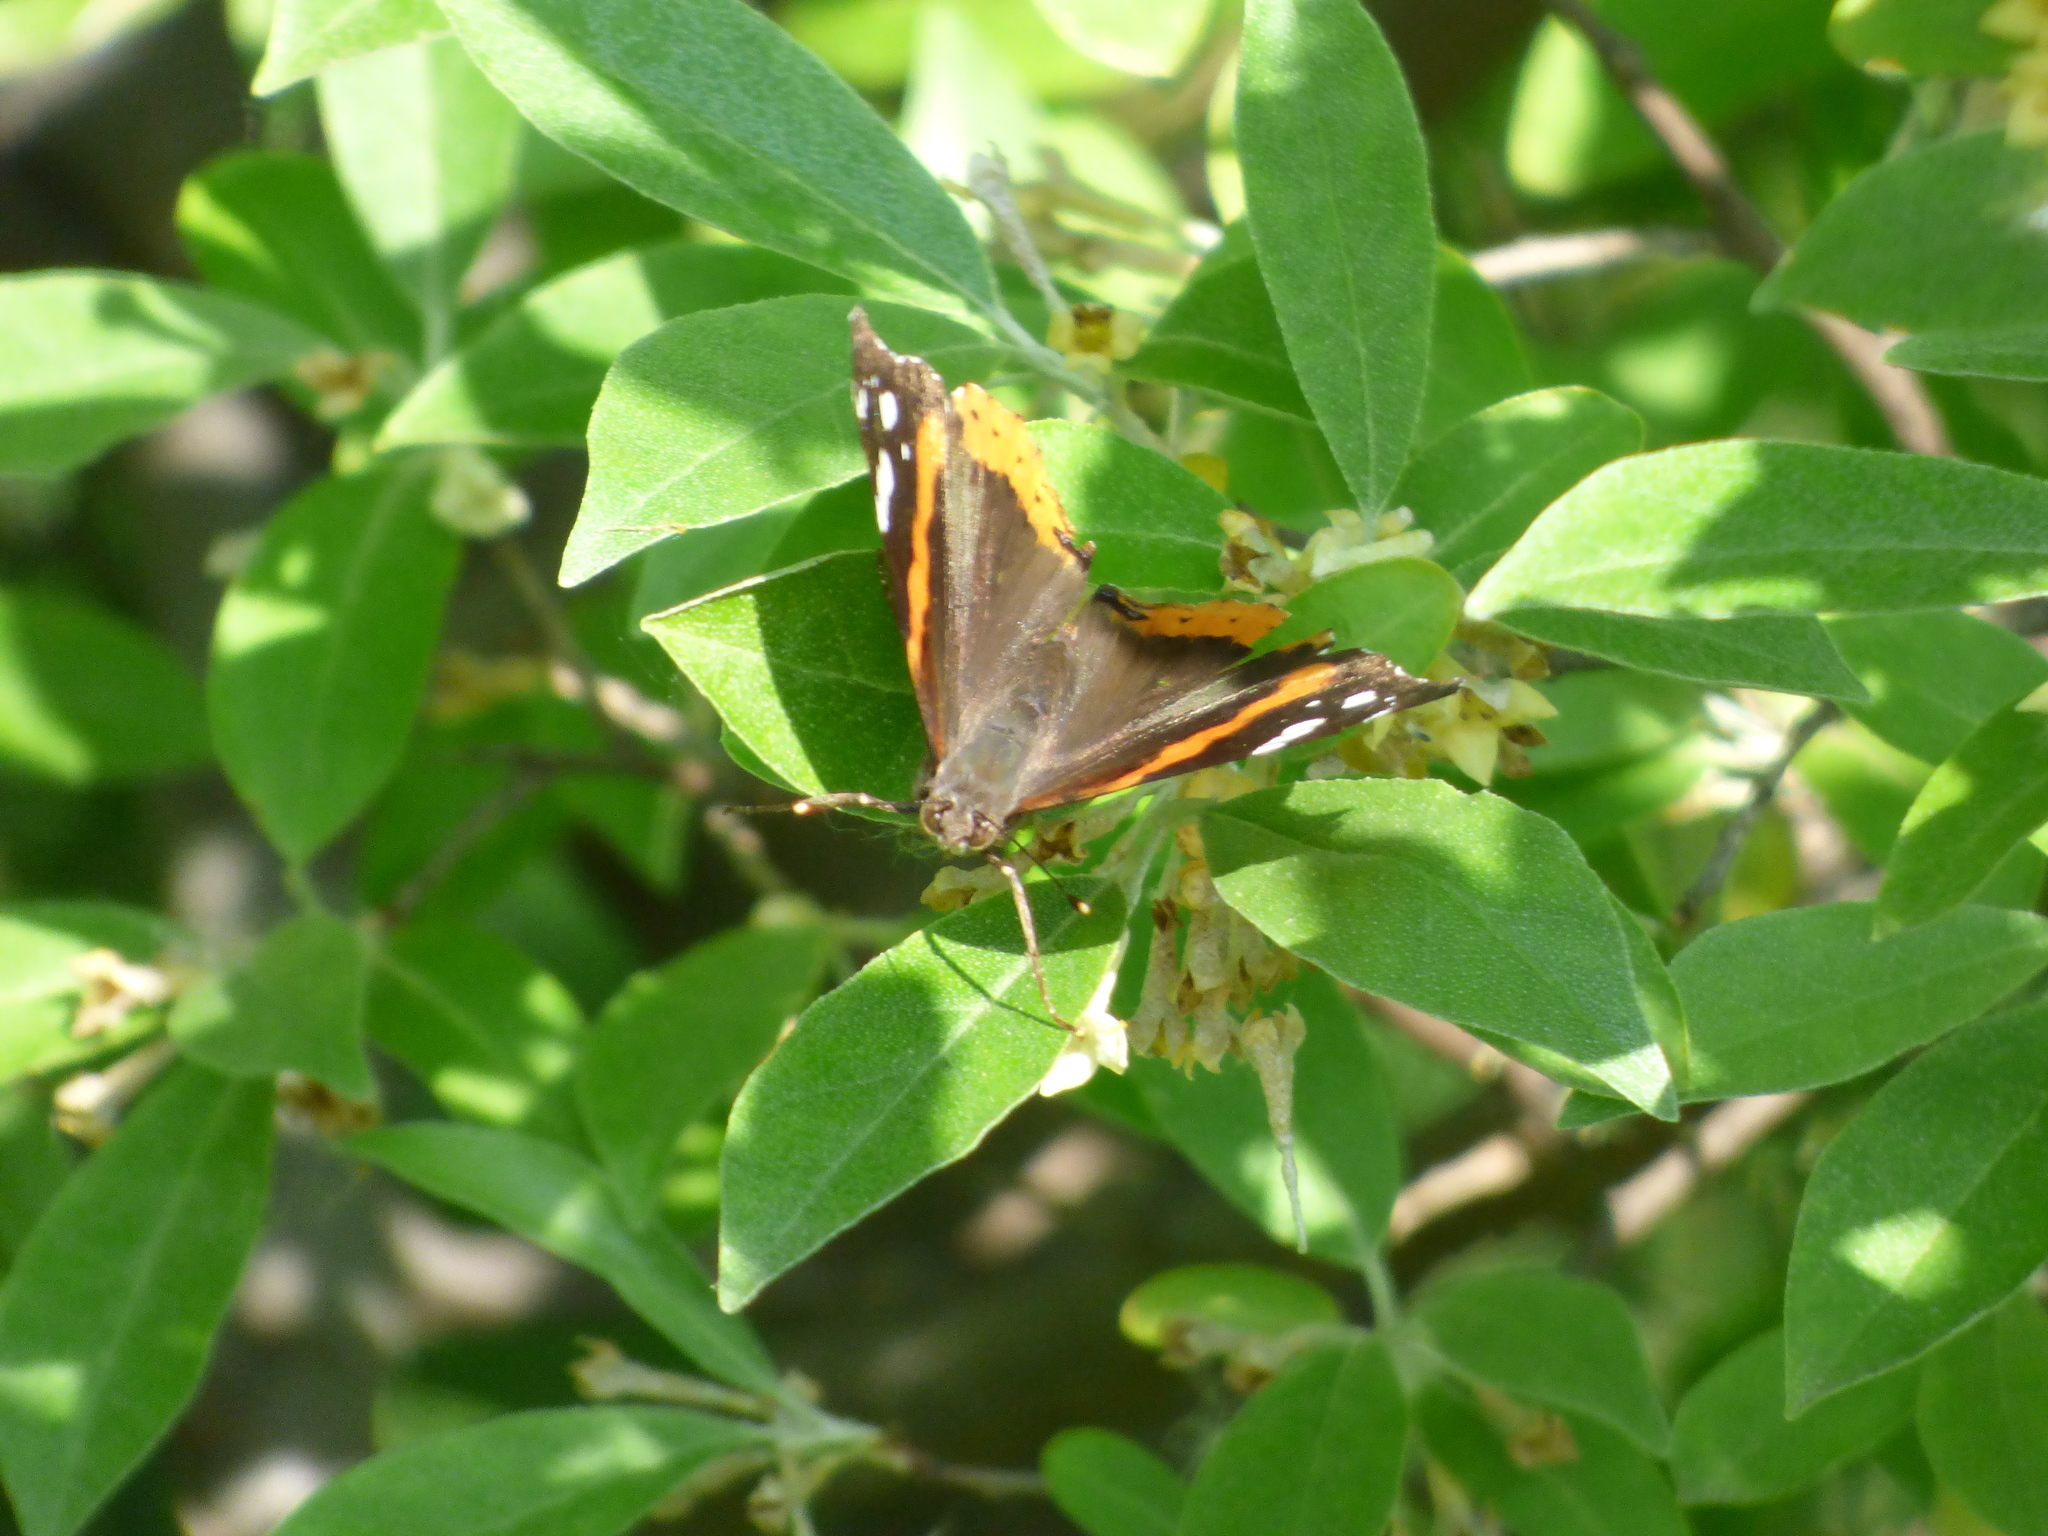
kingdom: Animalia
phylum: Arthropoda
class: Insecta
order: Lepidoptera
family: Nymphalidae
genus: Vanessa
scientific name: Vanessa atalanta
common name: Red admiral
